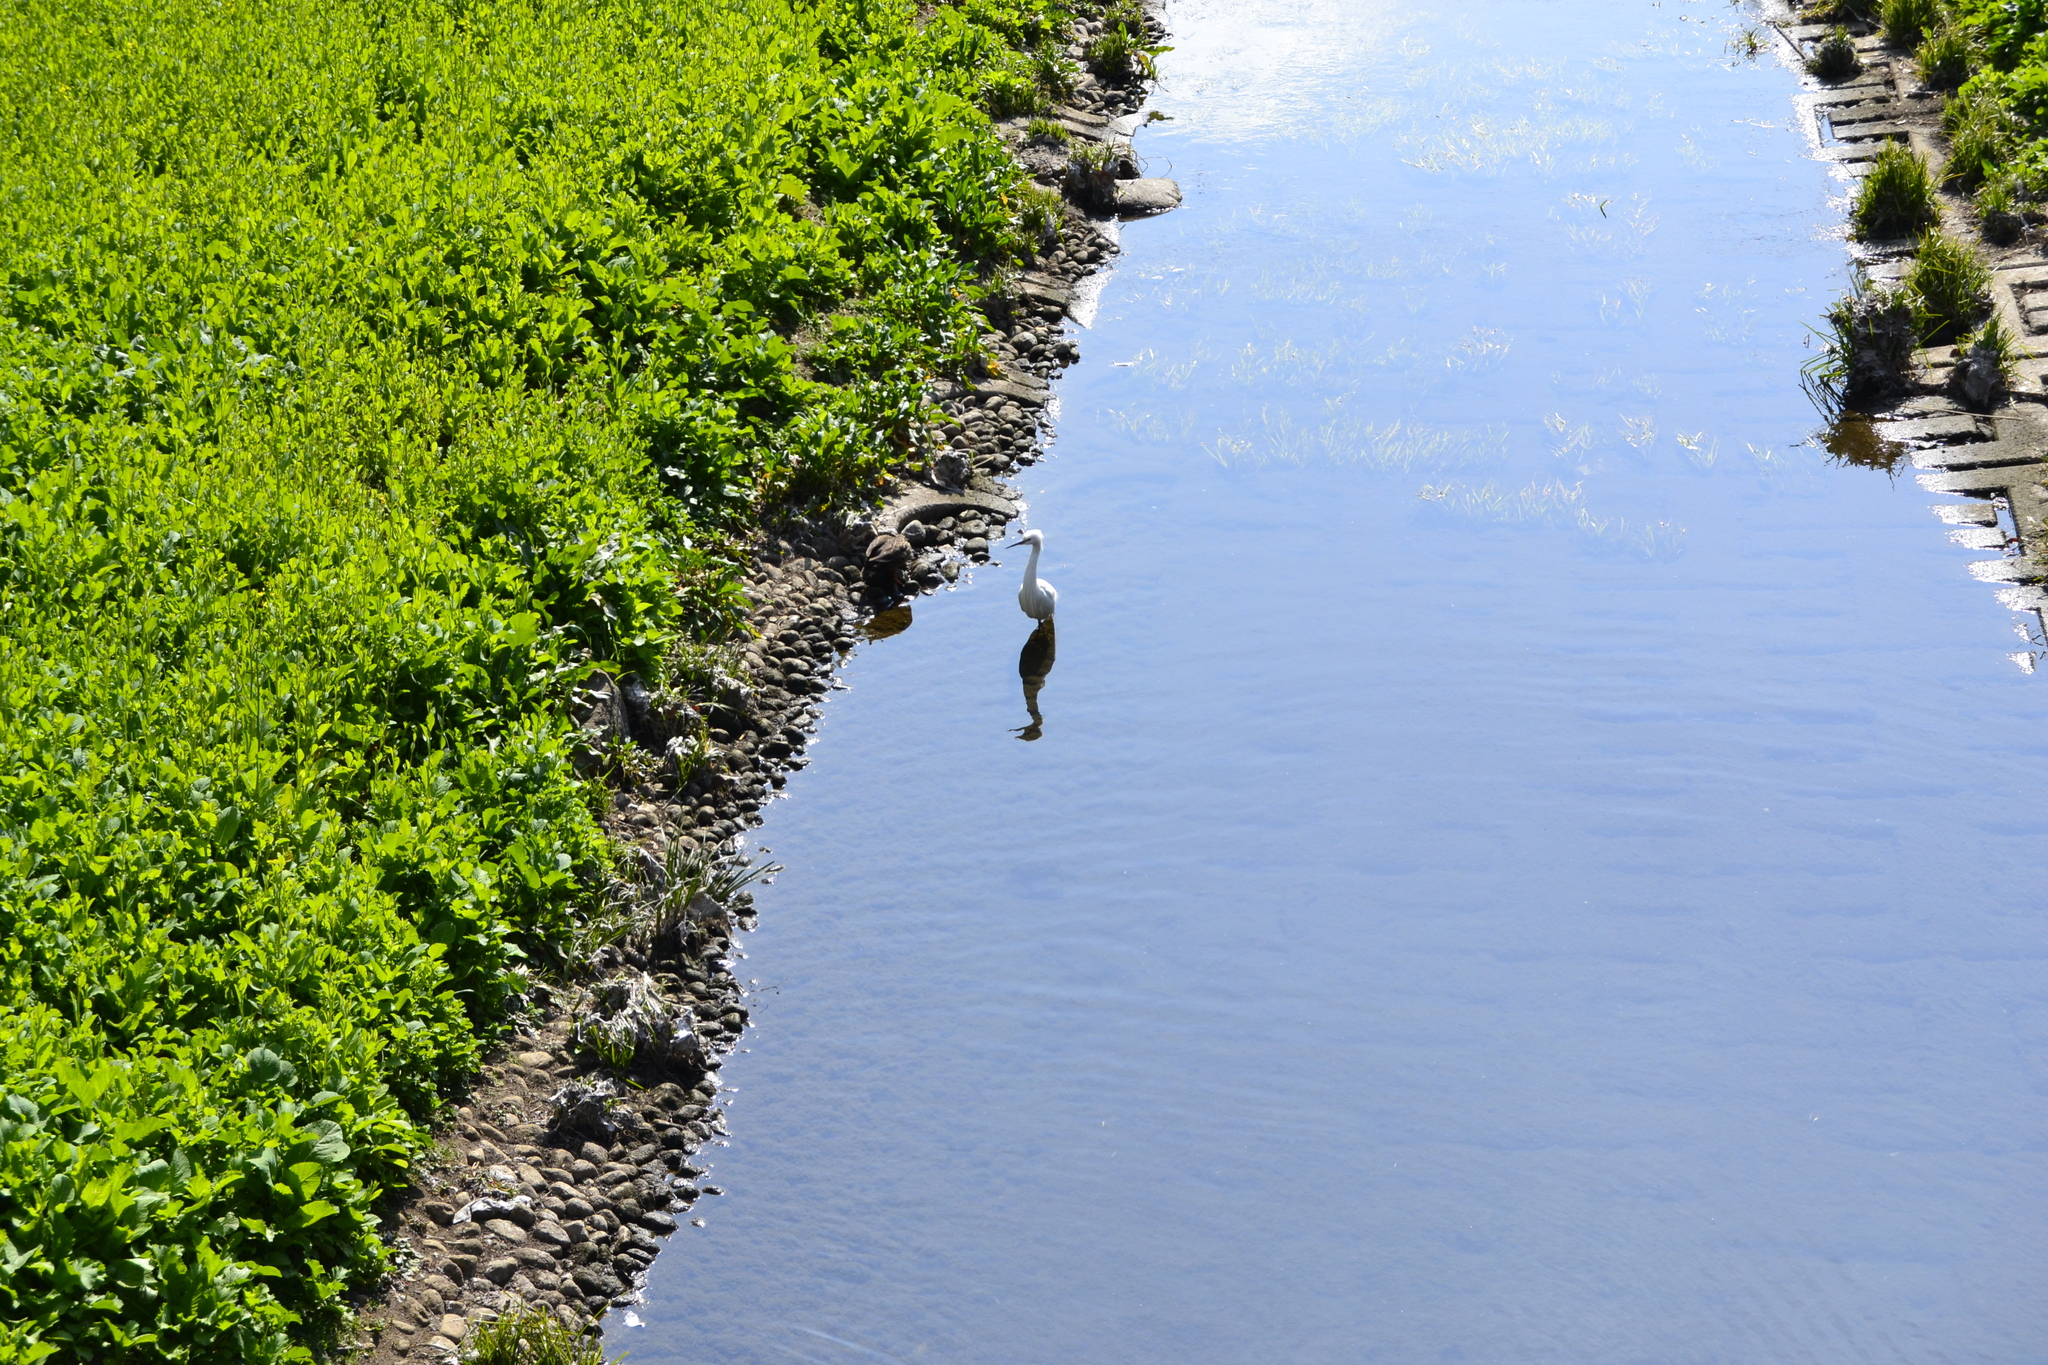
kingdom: Animalia
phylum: Chordata
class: Aves
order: Pelecaniformes
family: Ardeidae
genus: Egretta
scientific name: Egretta garzetta
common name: Little egret
